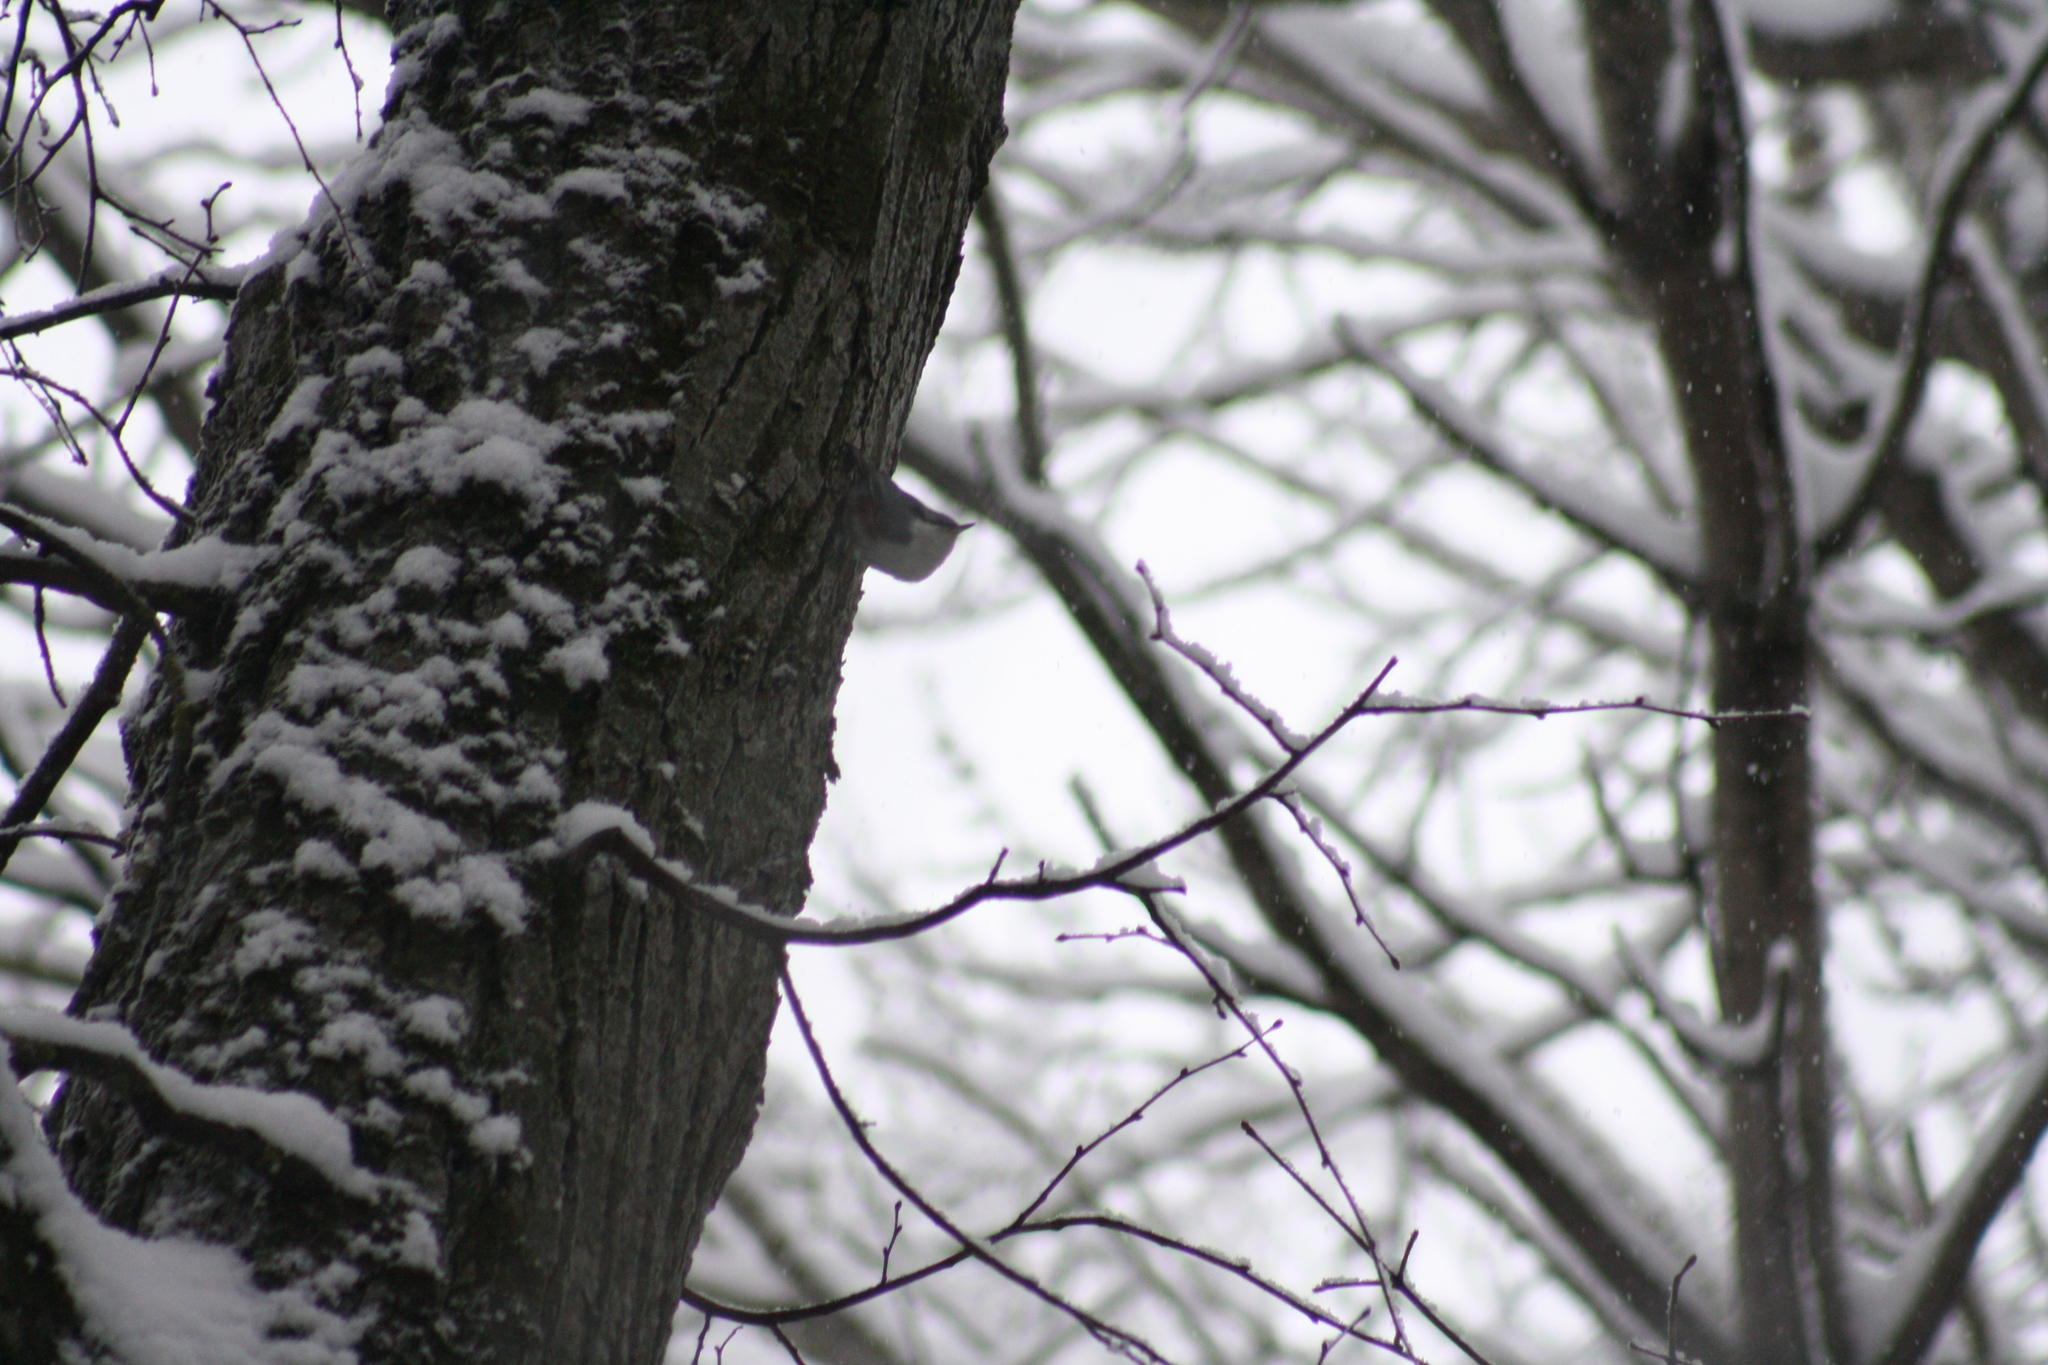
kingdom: Animalia
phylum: Chordata
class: Aves
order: Passeriformes
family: Sittidae
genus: Sitta
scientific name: Sitta europaea
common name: Eurasian nuthatch
